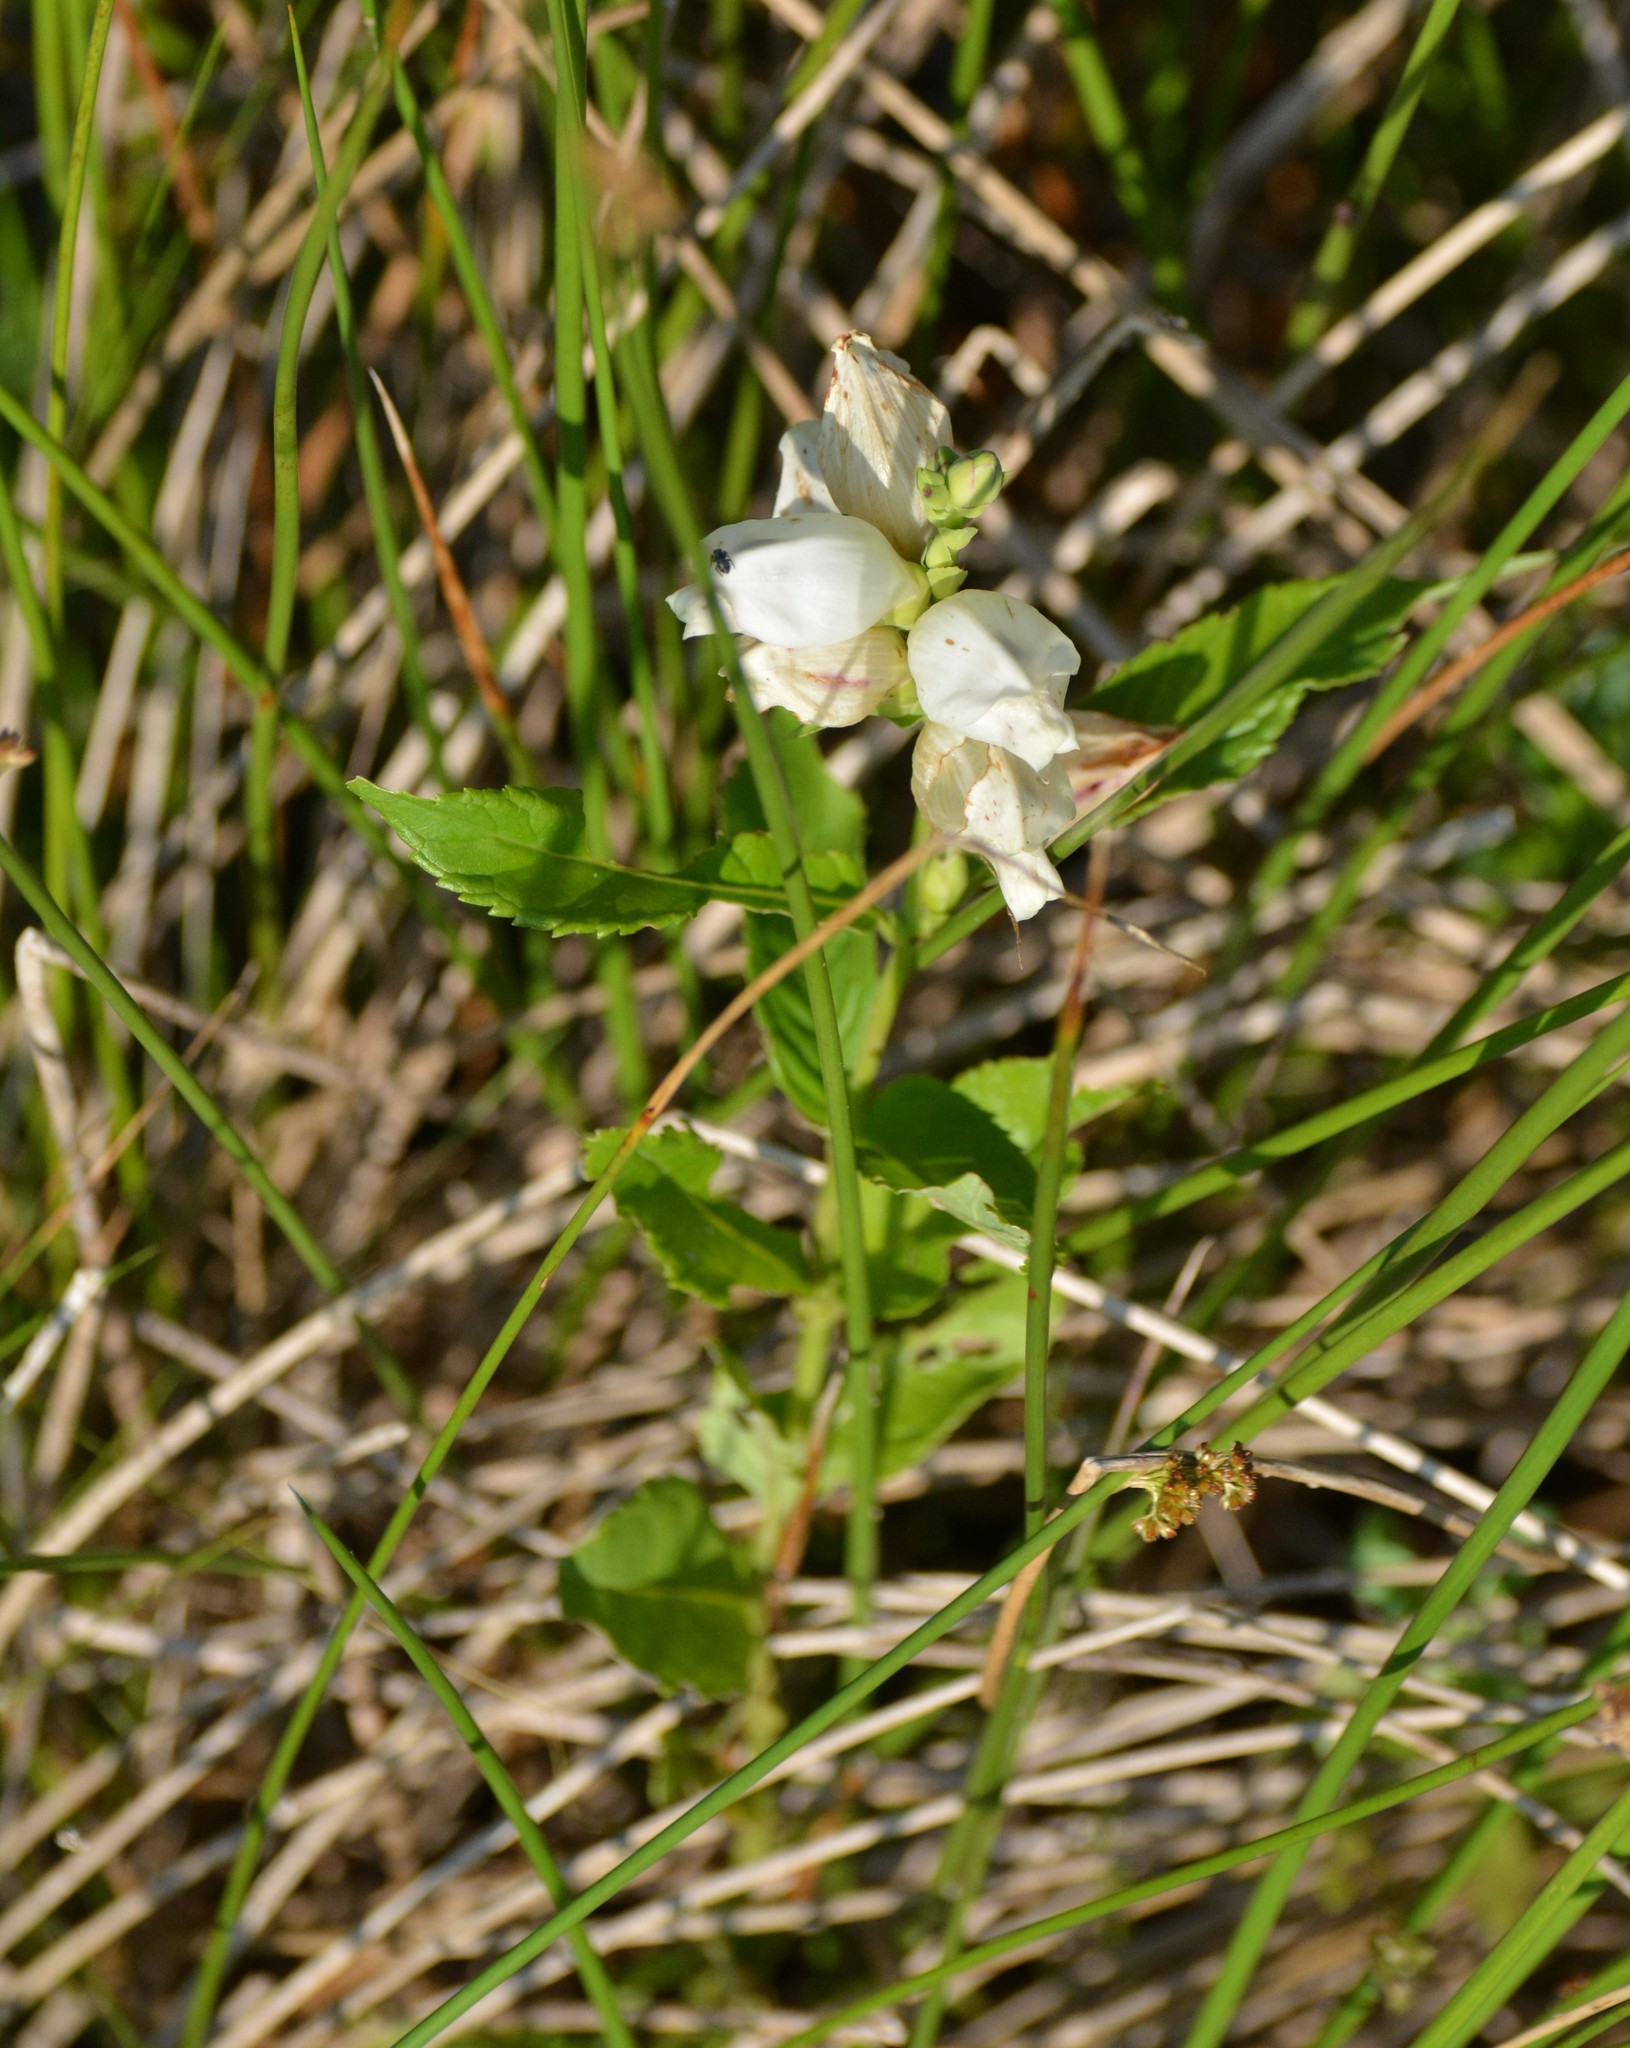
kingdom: Plantae
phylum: Tracheophyta
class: Magnoliopsida
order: Lamiales
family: Plantaginaceae
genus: Chelone
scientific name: Chelone glabra
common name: Snakehead
